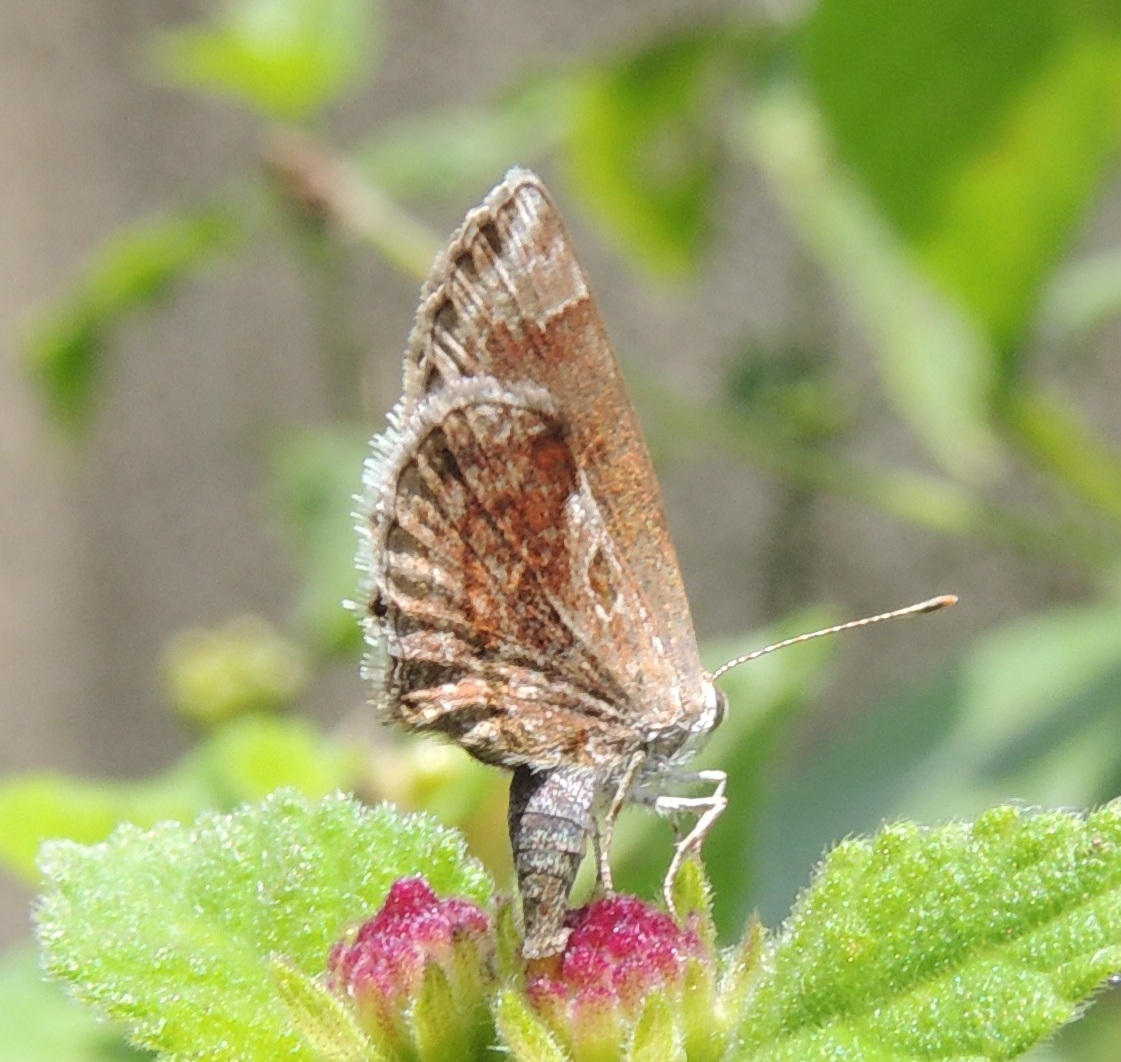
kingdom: Animalia
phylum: Arthropoda
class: Insecta
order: Lepidoptera
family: Lycaenidae
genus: Strymon
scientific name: Strymon bazochii
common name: Lantana scrub-hairstreak
